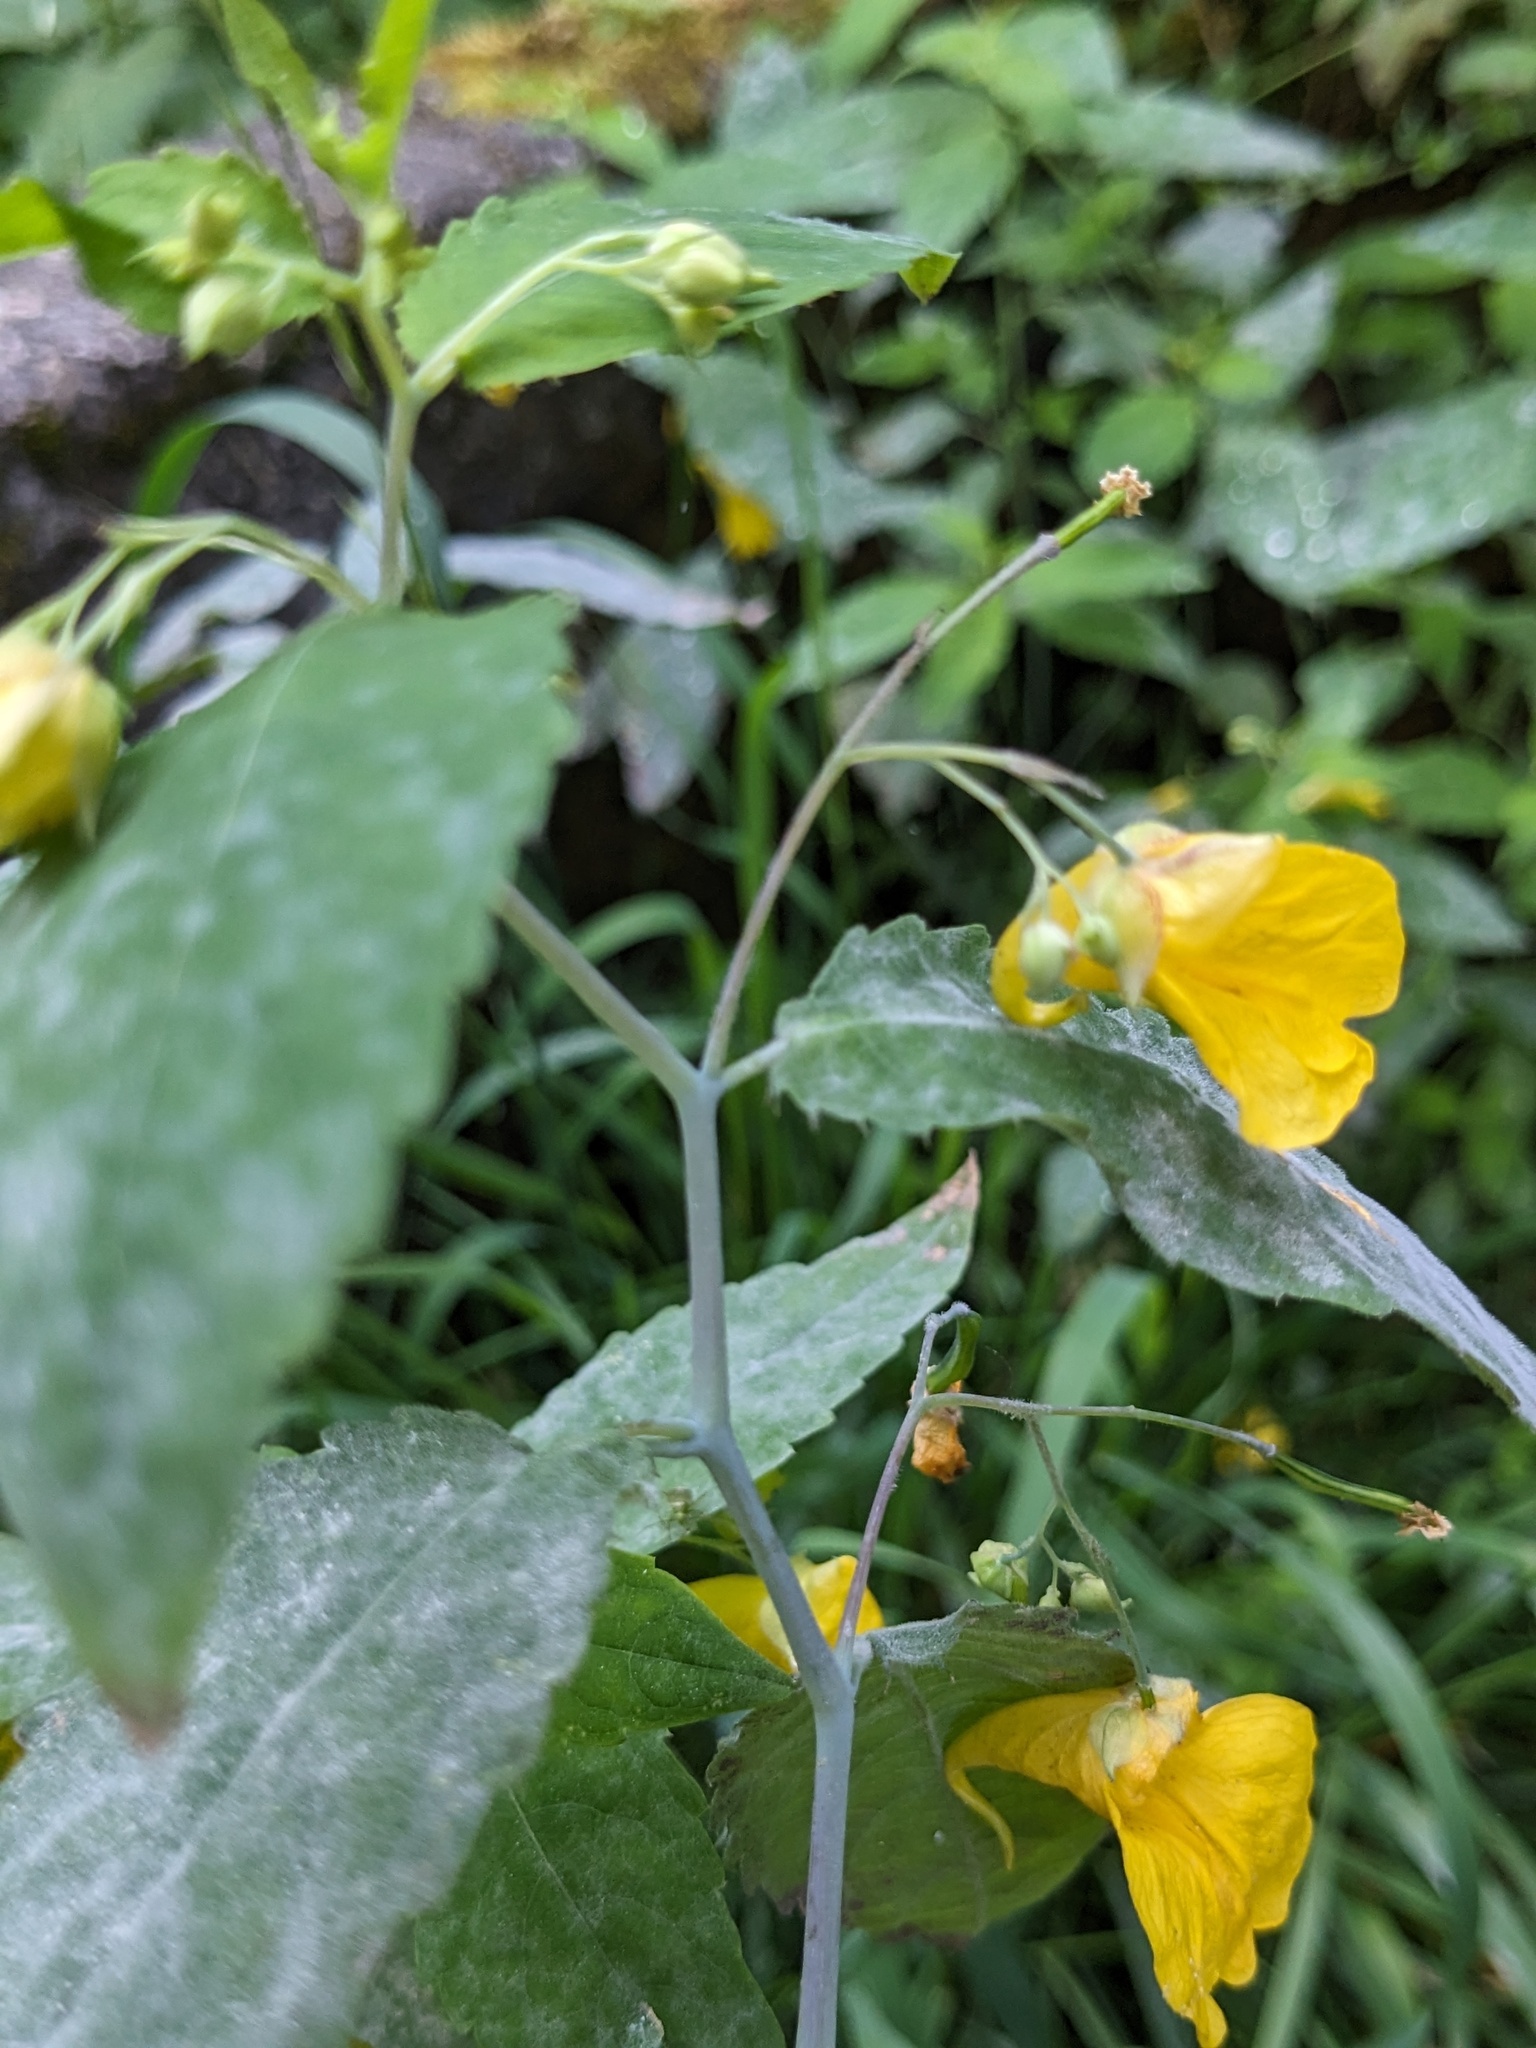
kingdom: Plantae
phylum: Tracheophyta
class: Magnoliopsida
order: Ericales
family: Balsaminaceae
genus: Impatiens
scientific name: Impatiens noli-tangere
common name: Touch-me-not balsam
